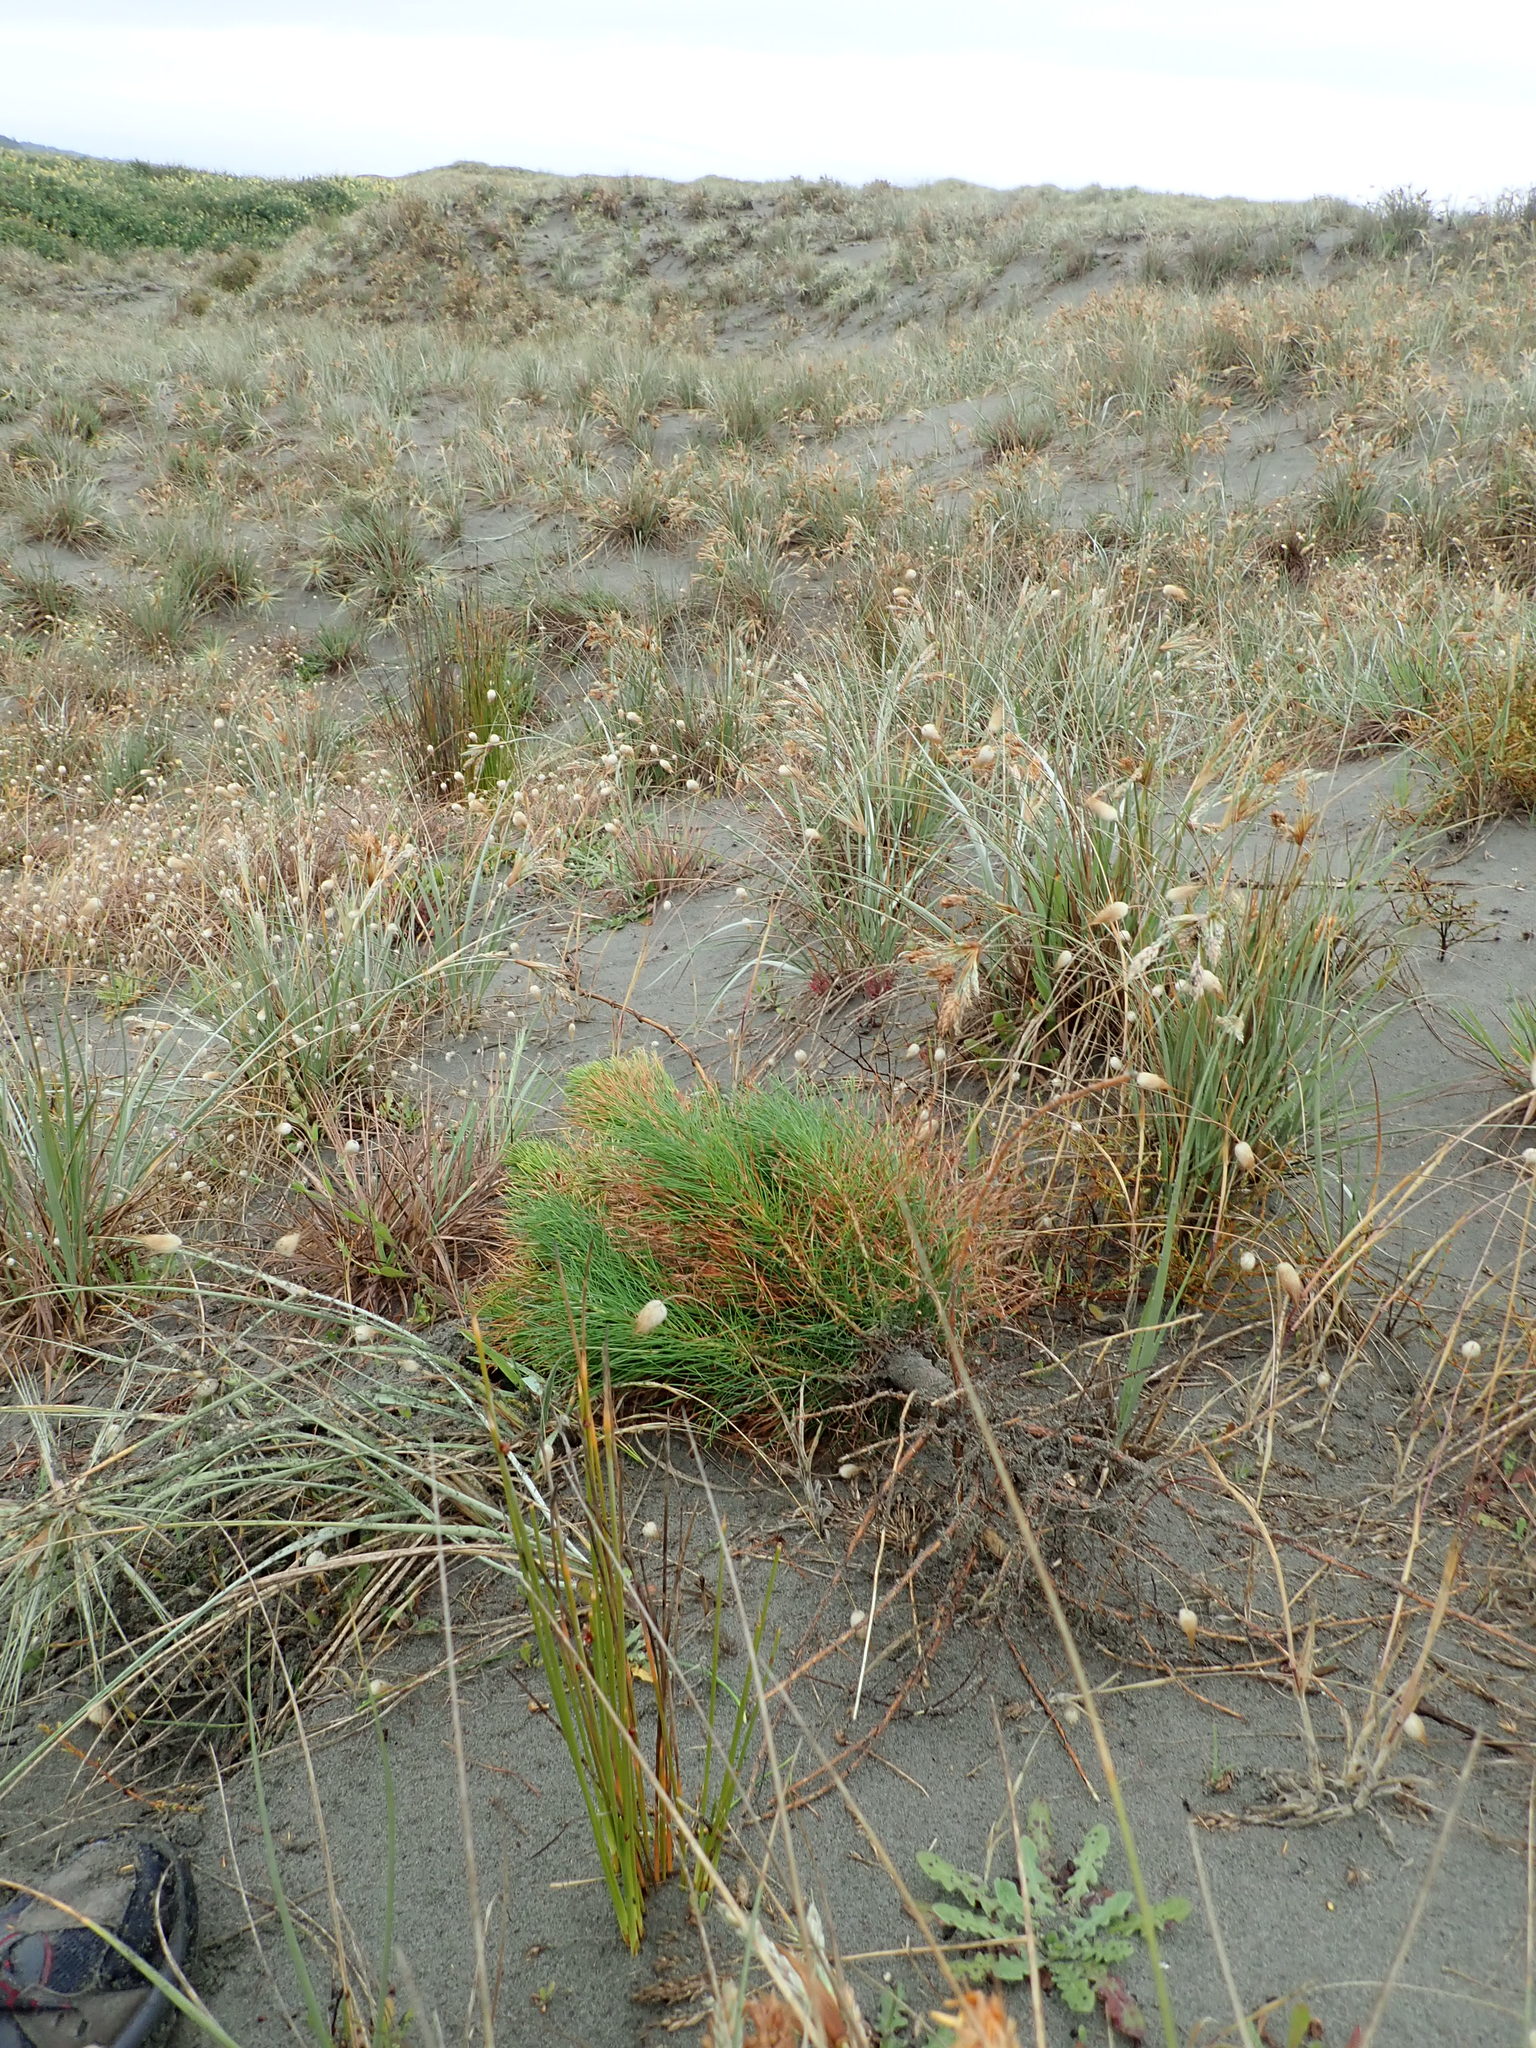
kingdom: Plantae
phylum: Tracheophyta
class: Pinopsida
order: Pinales
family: Pinaceae
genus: Pinus
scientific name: Pinus radiata
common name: Monterey pine
